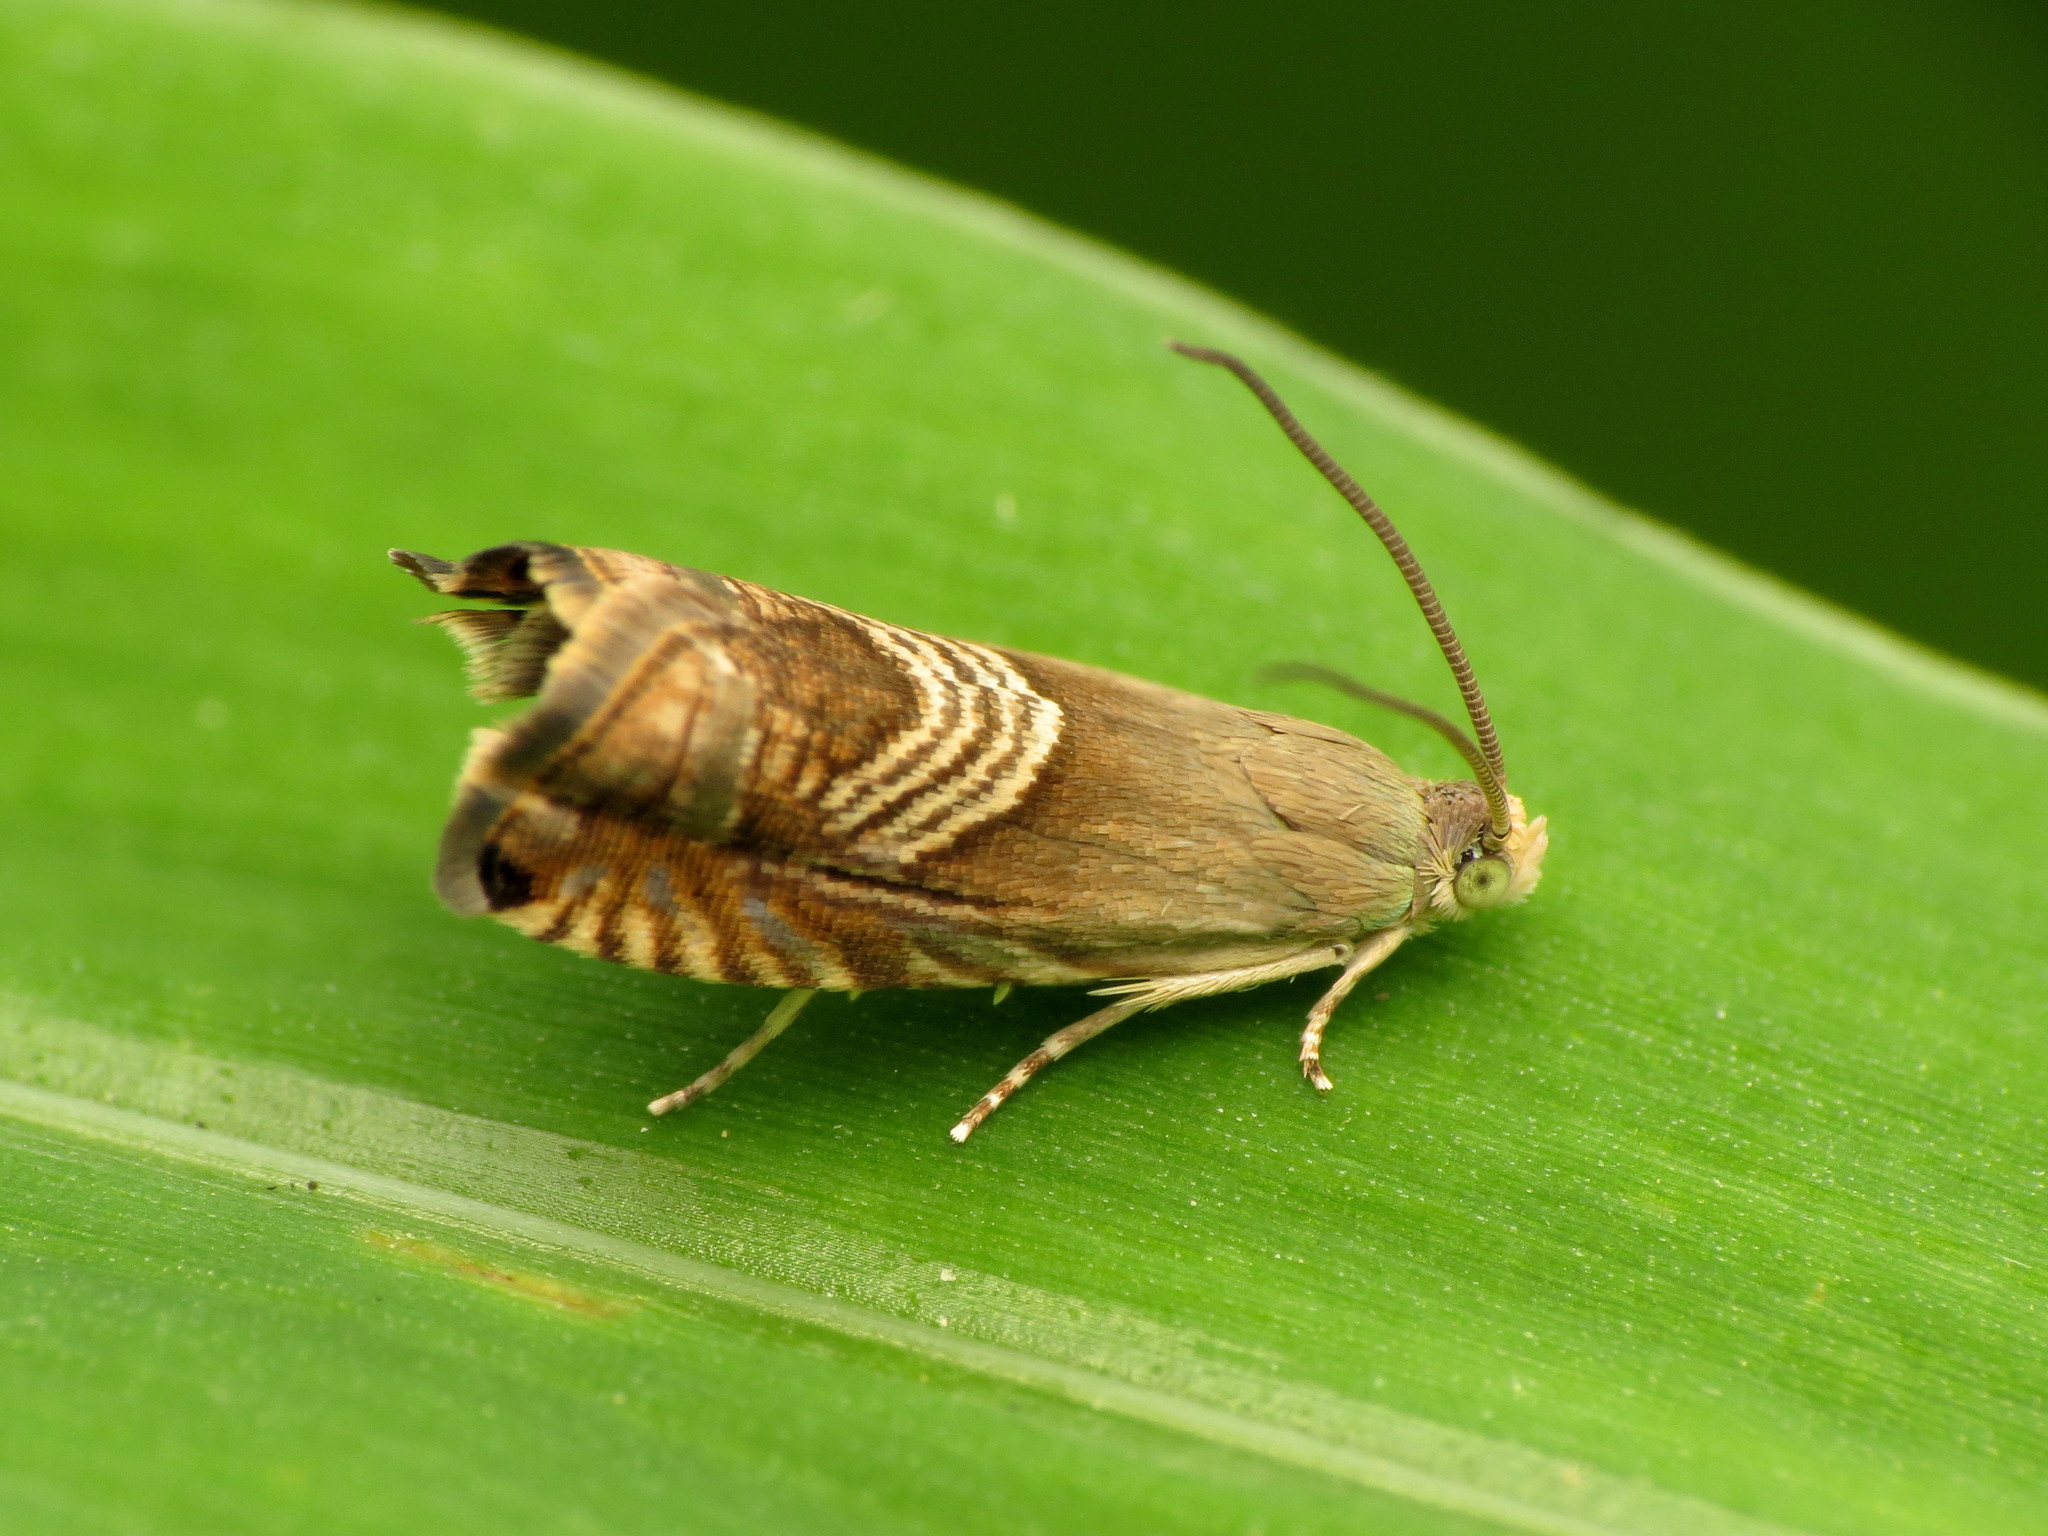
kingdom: Animalia
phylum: Arthropoda
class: Insecta
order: Lepidoptera
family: Tortricidae
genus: Grapholita
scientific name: Grapholita tristrigana
